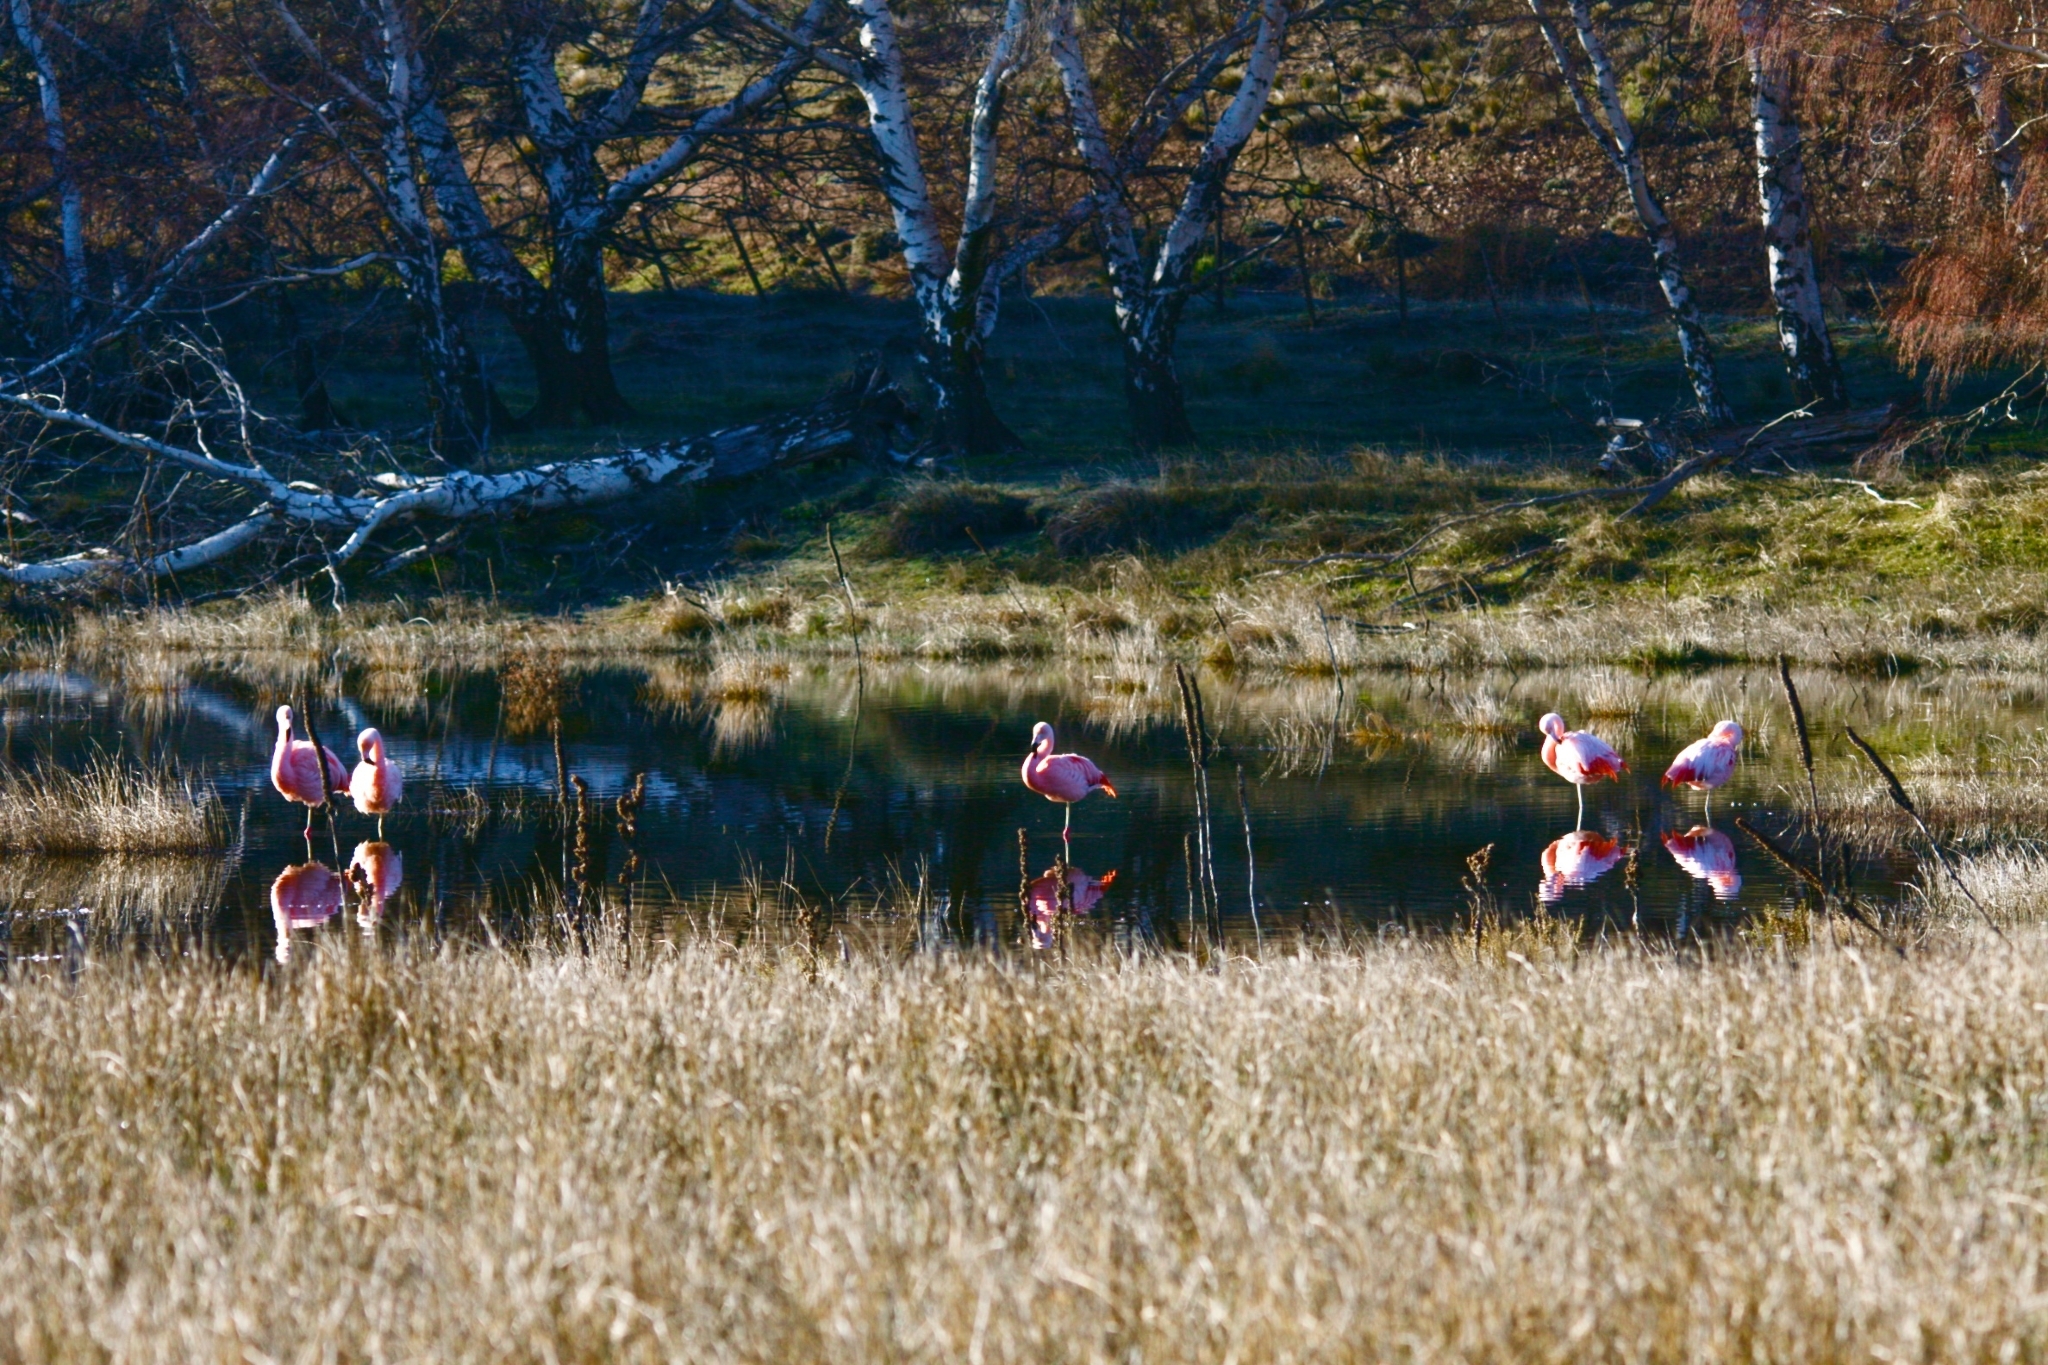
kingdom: Animalia
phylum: Chordata
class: Aves
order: Phoenicopteriformes
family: Phoenicopteridae
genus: Phoenicopterus
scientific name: Phoenicopterus chilensis
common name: Chilean flamingo
